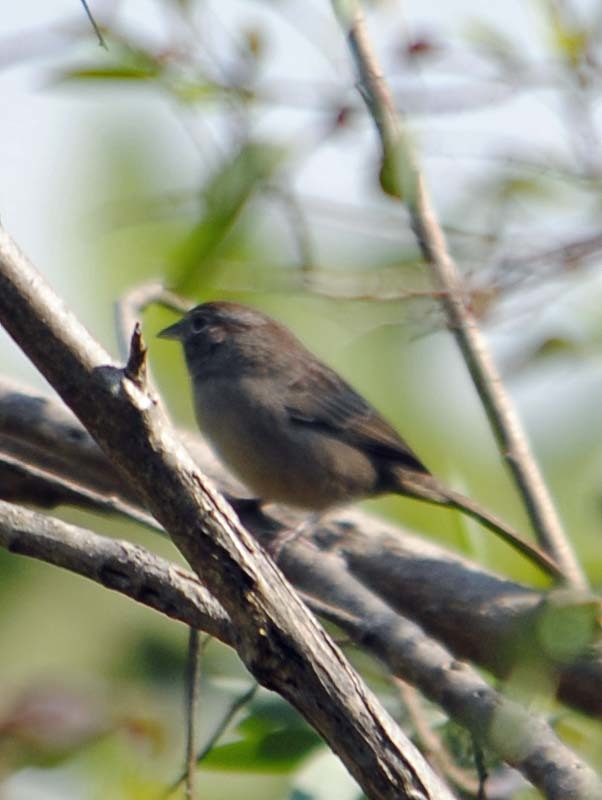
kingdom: Animalia
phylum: Chordata
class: Aves
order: Passeriformes
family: Passerellidae
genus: Aimophila
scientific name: Aimophila ruficeps
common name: Rufous-crowned sparrow
